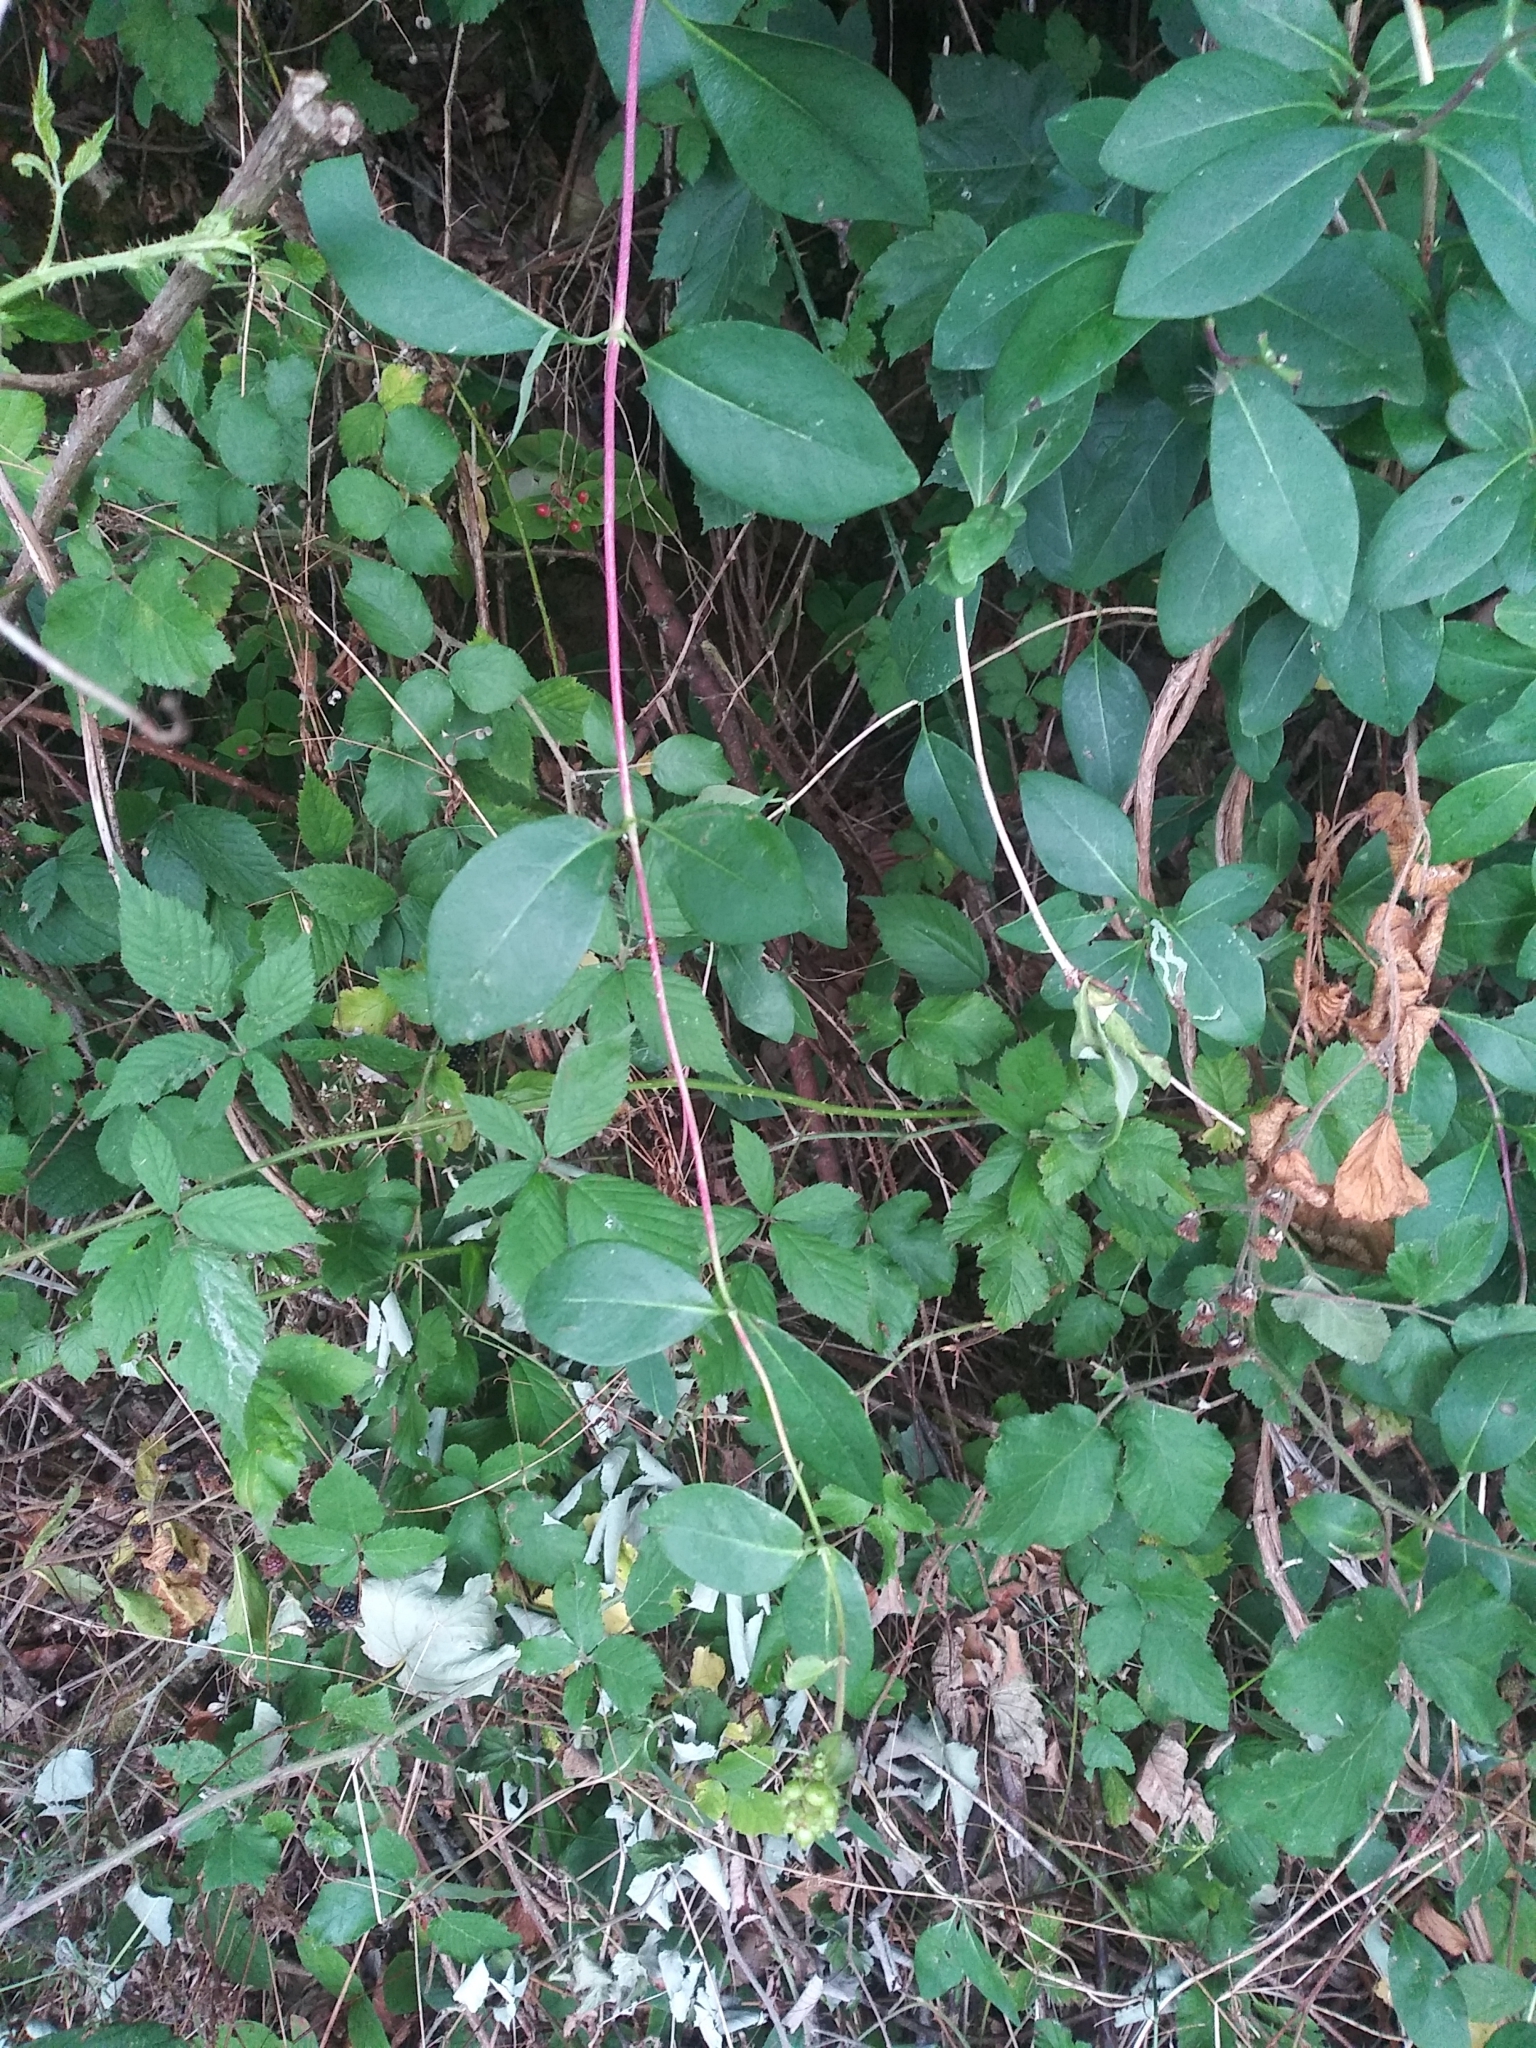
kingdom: Plantae
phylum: Tracheophyta
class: Magnoliopsida
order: Dipsacales
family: Caprifoliaceae
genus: Lonicera
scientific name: Lonicera periclymenum
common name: European honeysuckle
